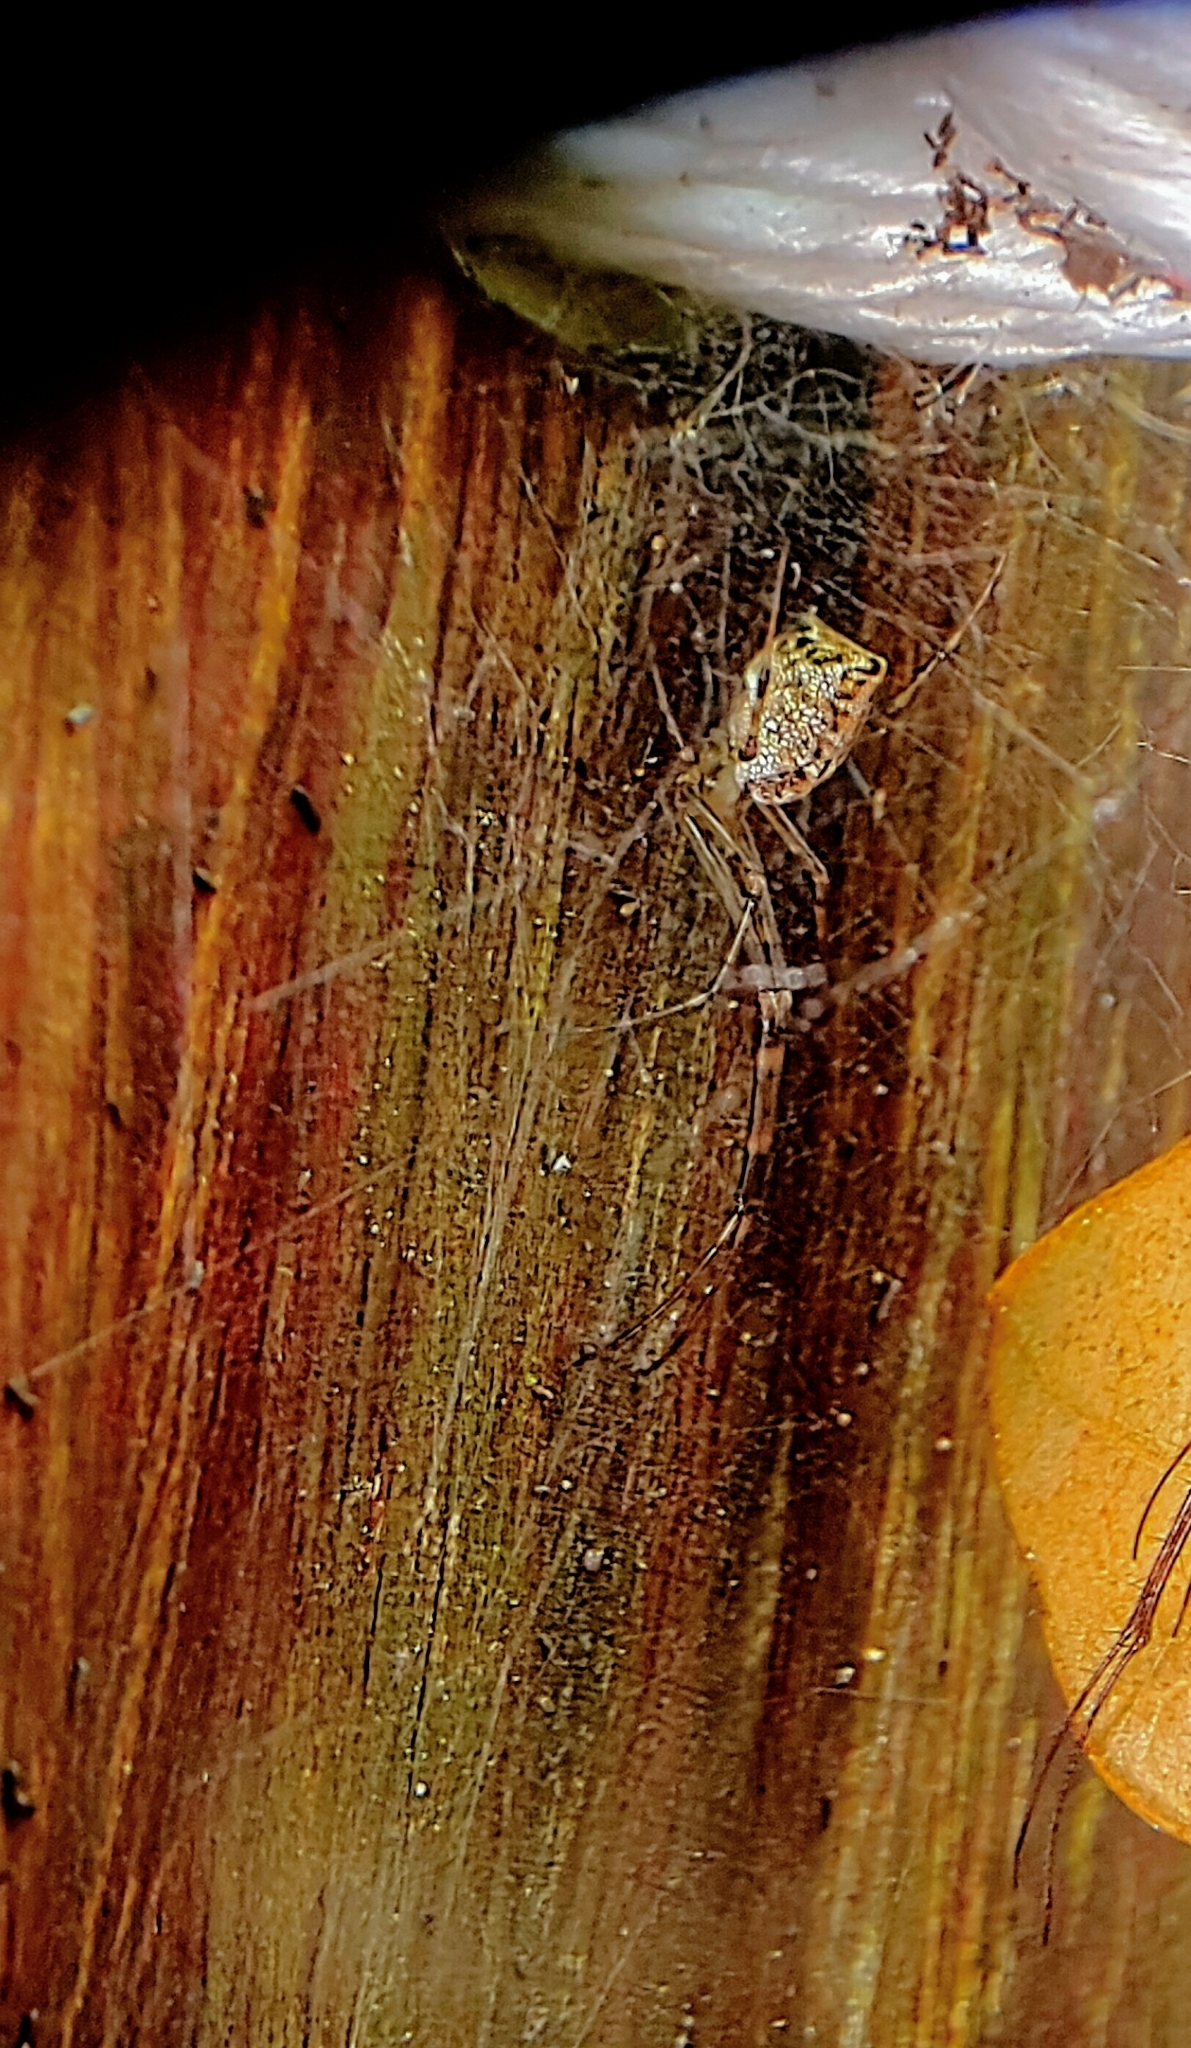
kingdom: Animalia
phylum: Arthropoda
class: Arachnida
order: Araneae
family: Tetragnathidae
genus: Tylorida
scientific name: Tylorida ventralis
